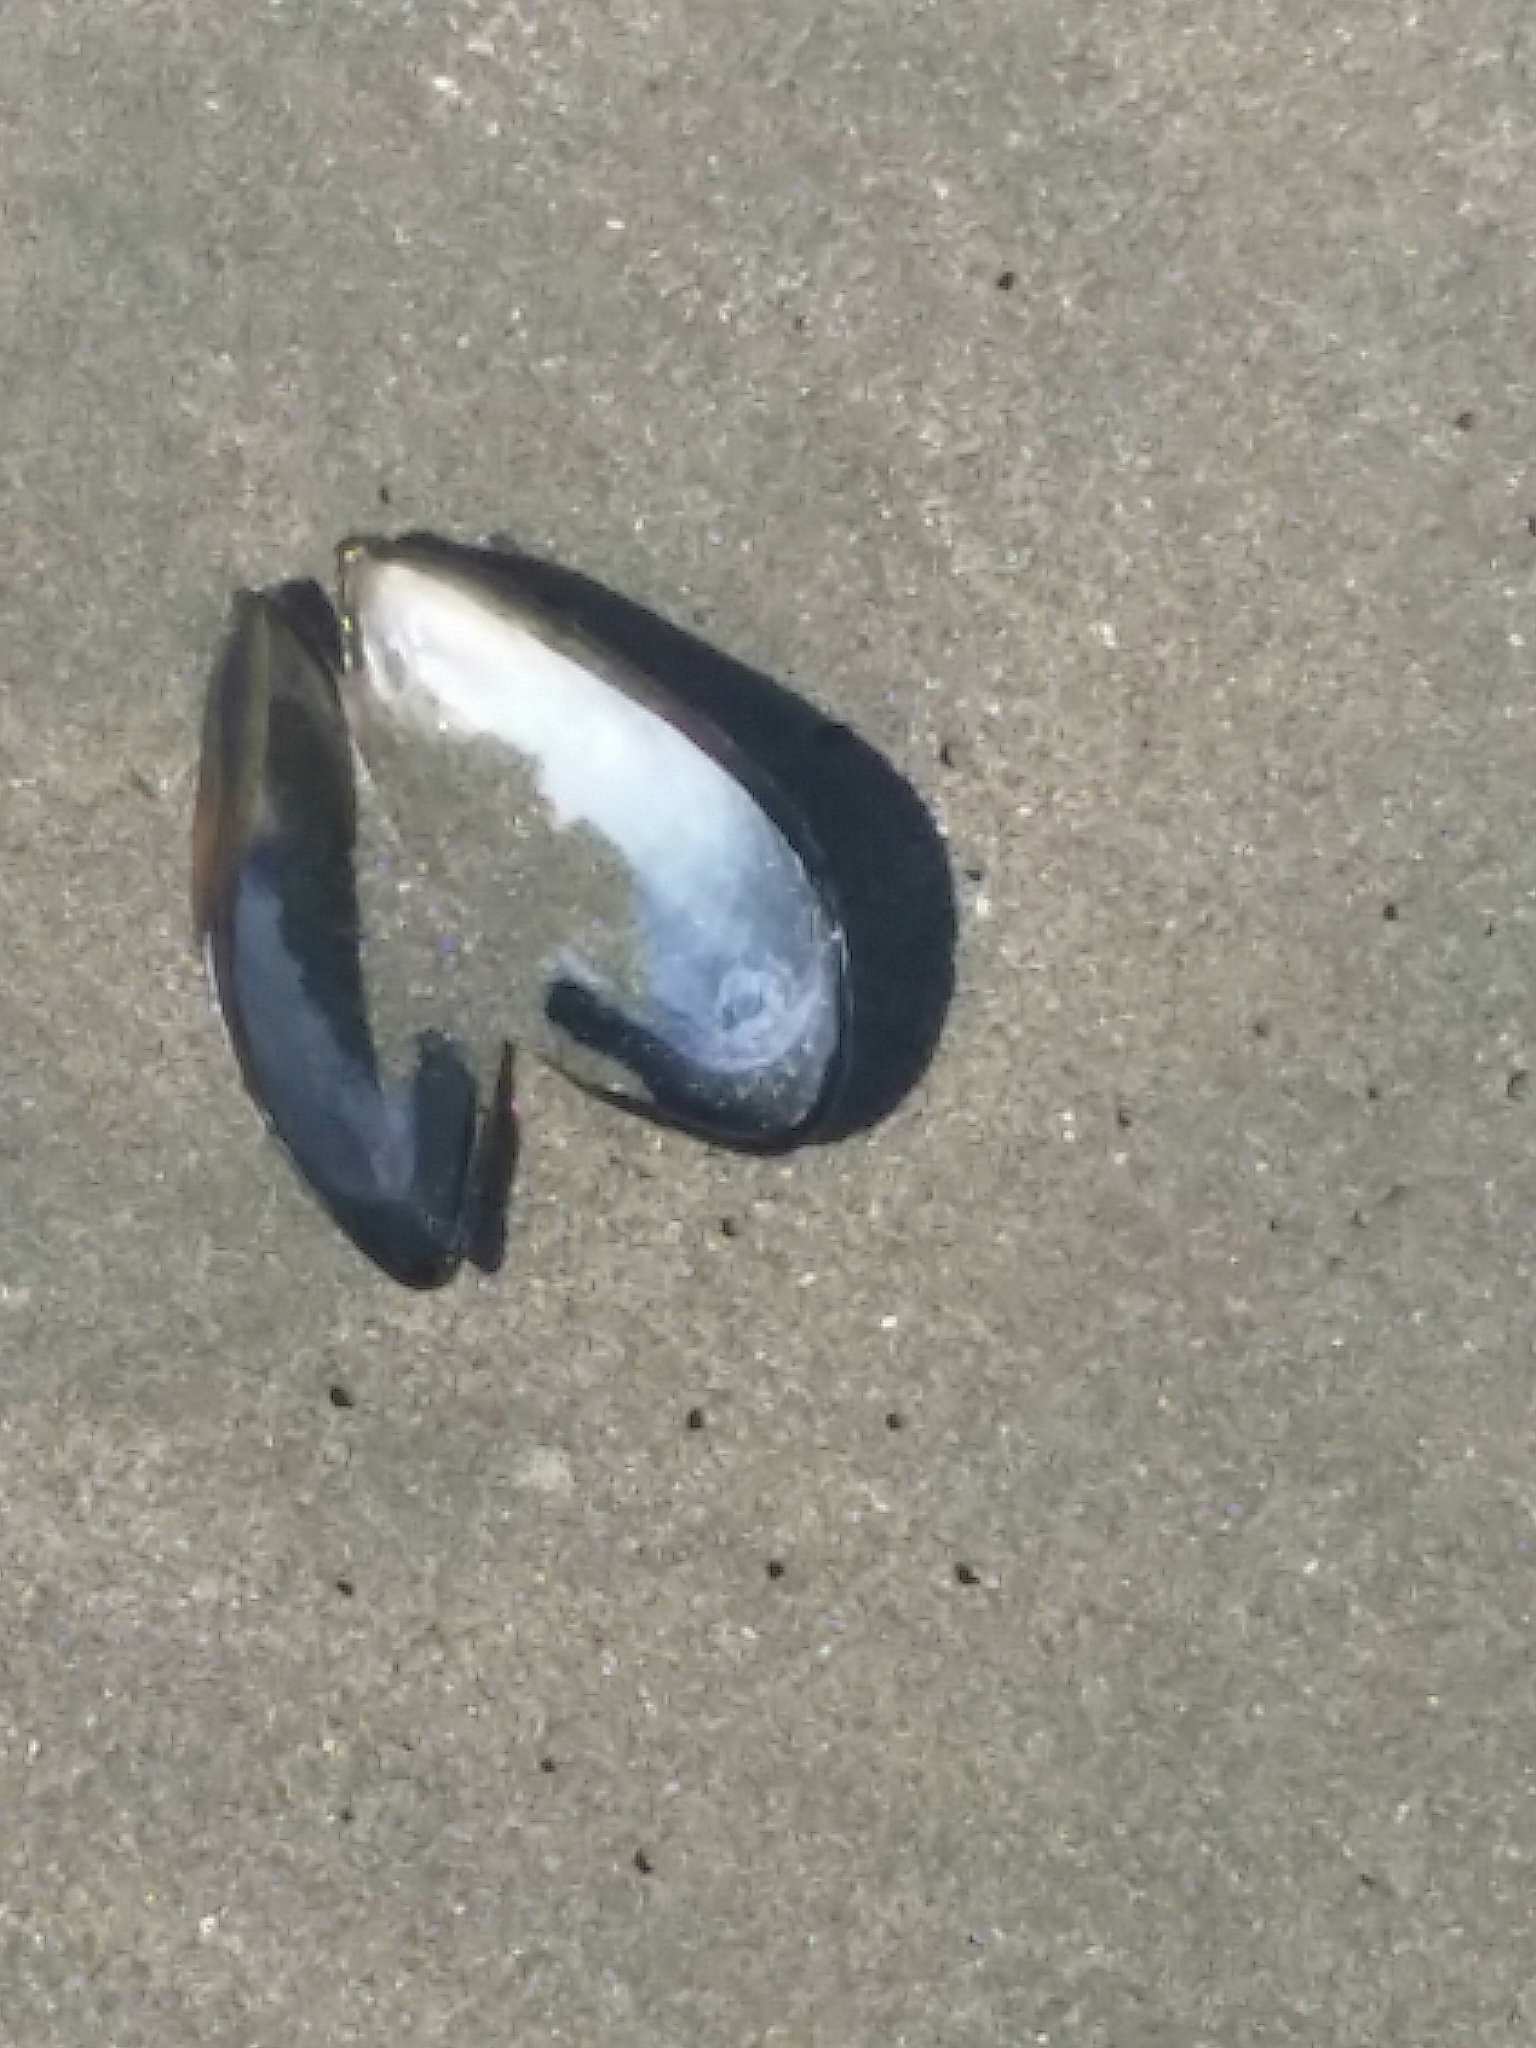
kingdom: Animalia
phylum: Mollusca
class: Bivalvia
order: Mytilida
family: Mytilidae
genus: Mytilus
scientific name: Mytilus californianus
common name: California mussel
